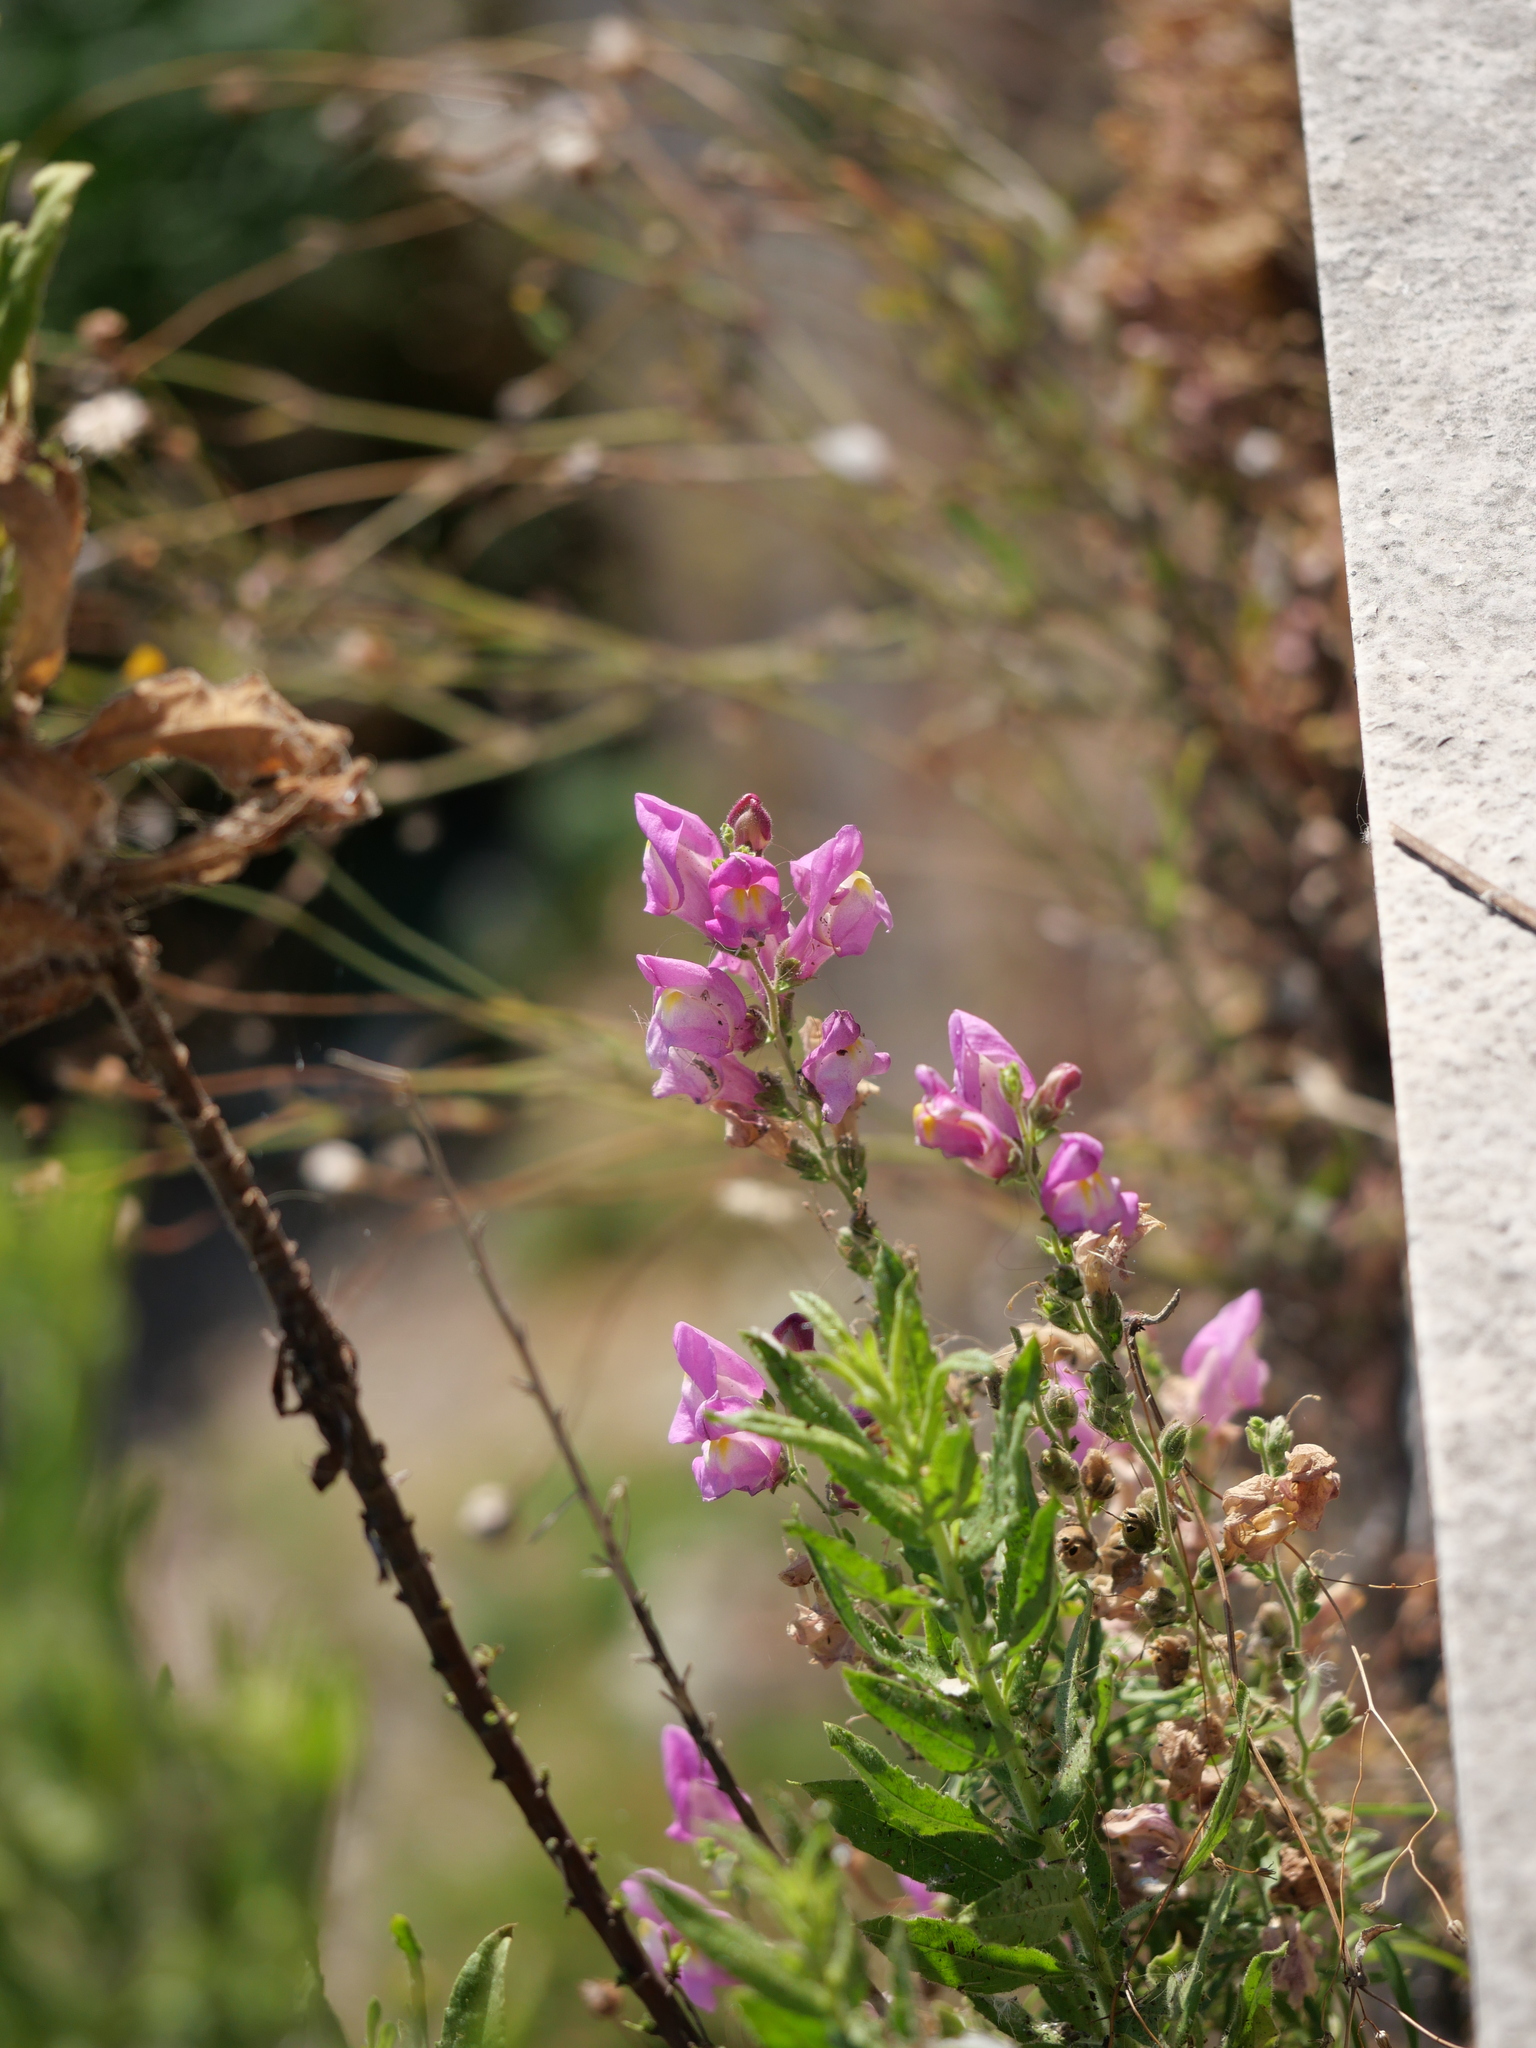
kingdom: Plantae
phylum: Tracheophyta
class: Magnoliopsida
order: Lamiales
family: Plantaginaceae
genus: Antirrhinum
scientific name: Antirrhinum tortuosum
